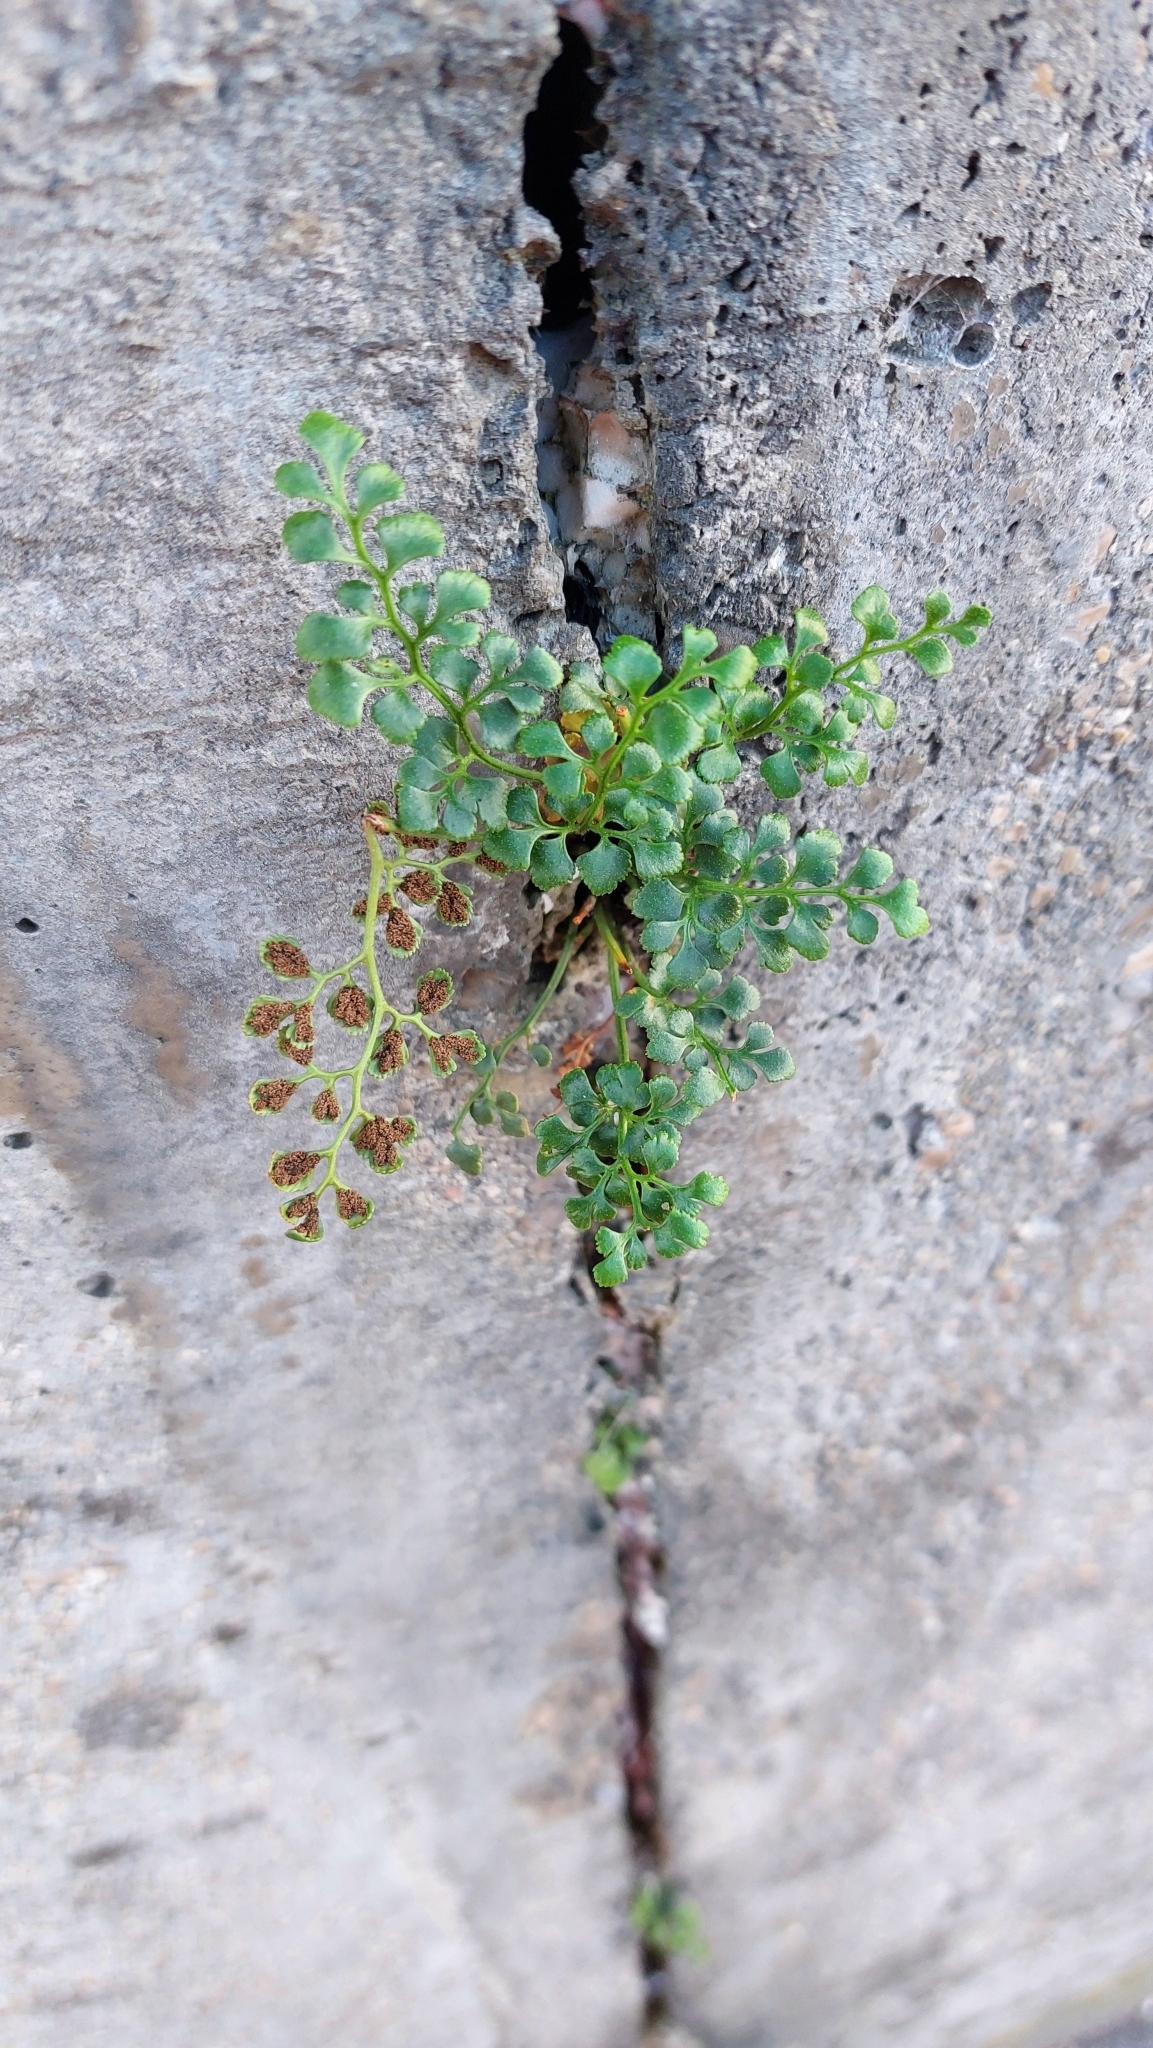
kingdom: Plantae
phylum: Tracheophyta
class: Polypodiopsida
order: Polypodiales
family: Aspleniaceae
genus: Asplenium
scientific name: Asplenium ruta-muraria
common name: Wall-rue
